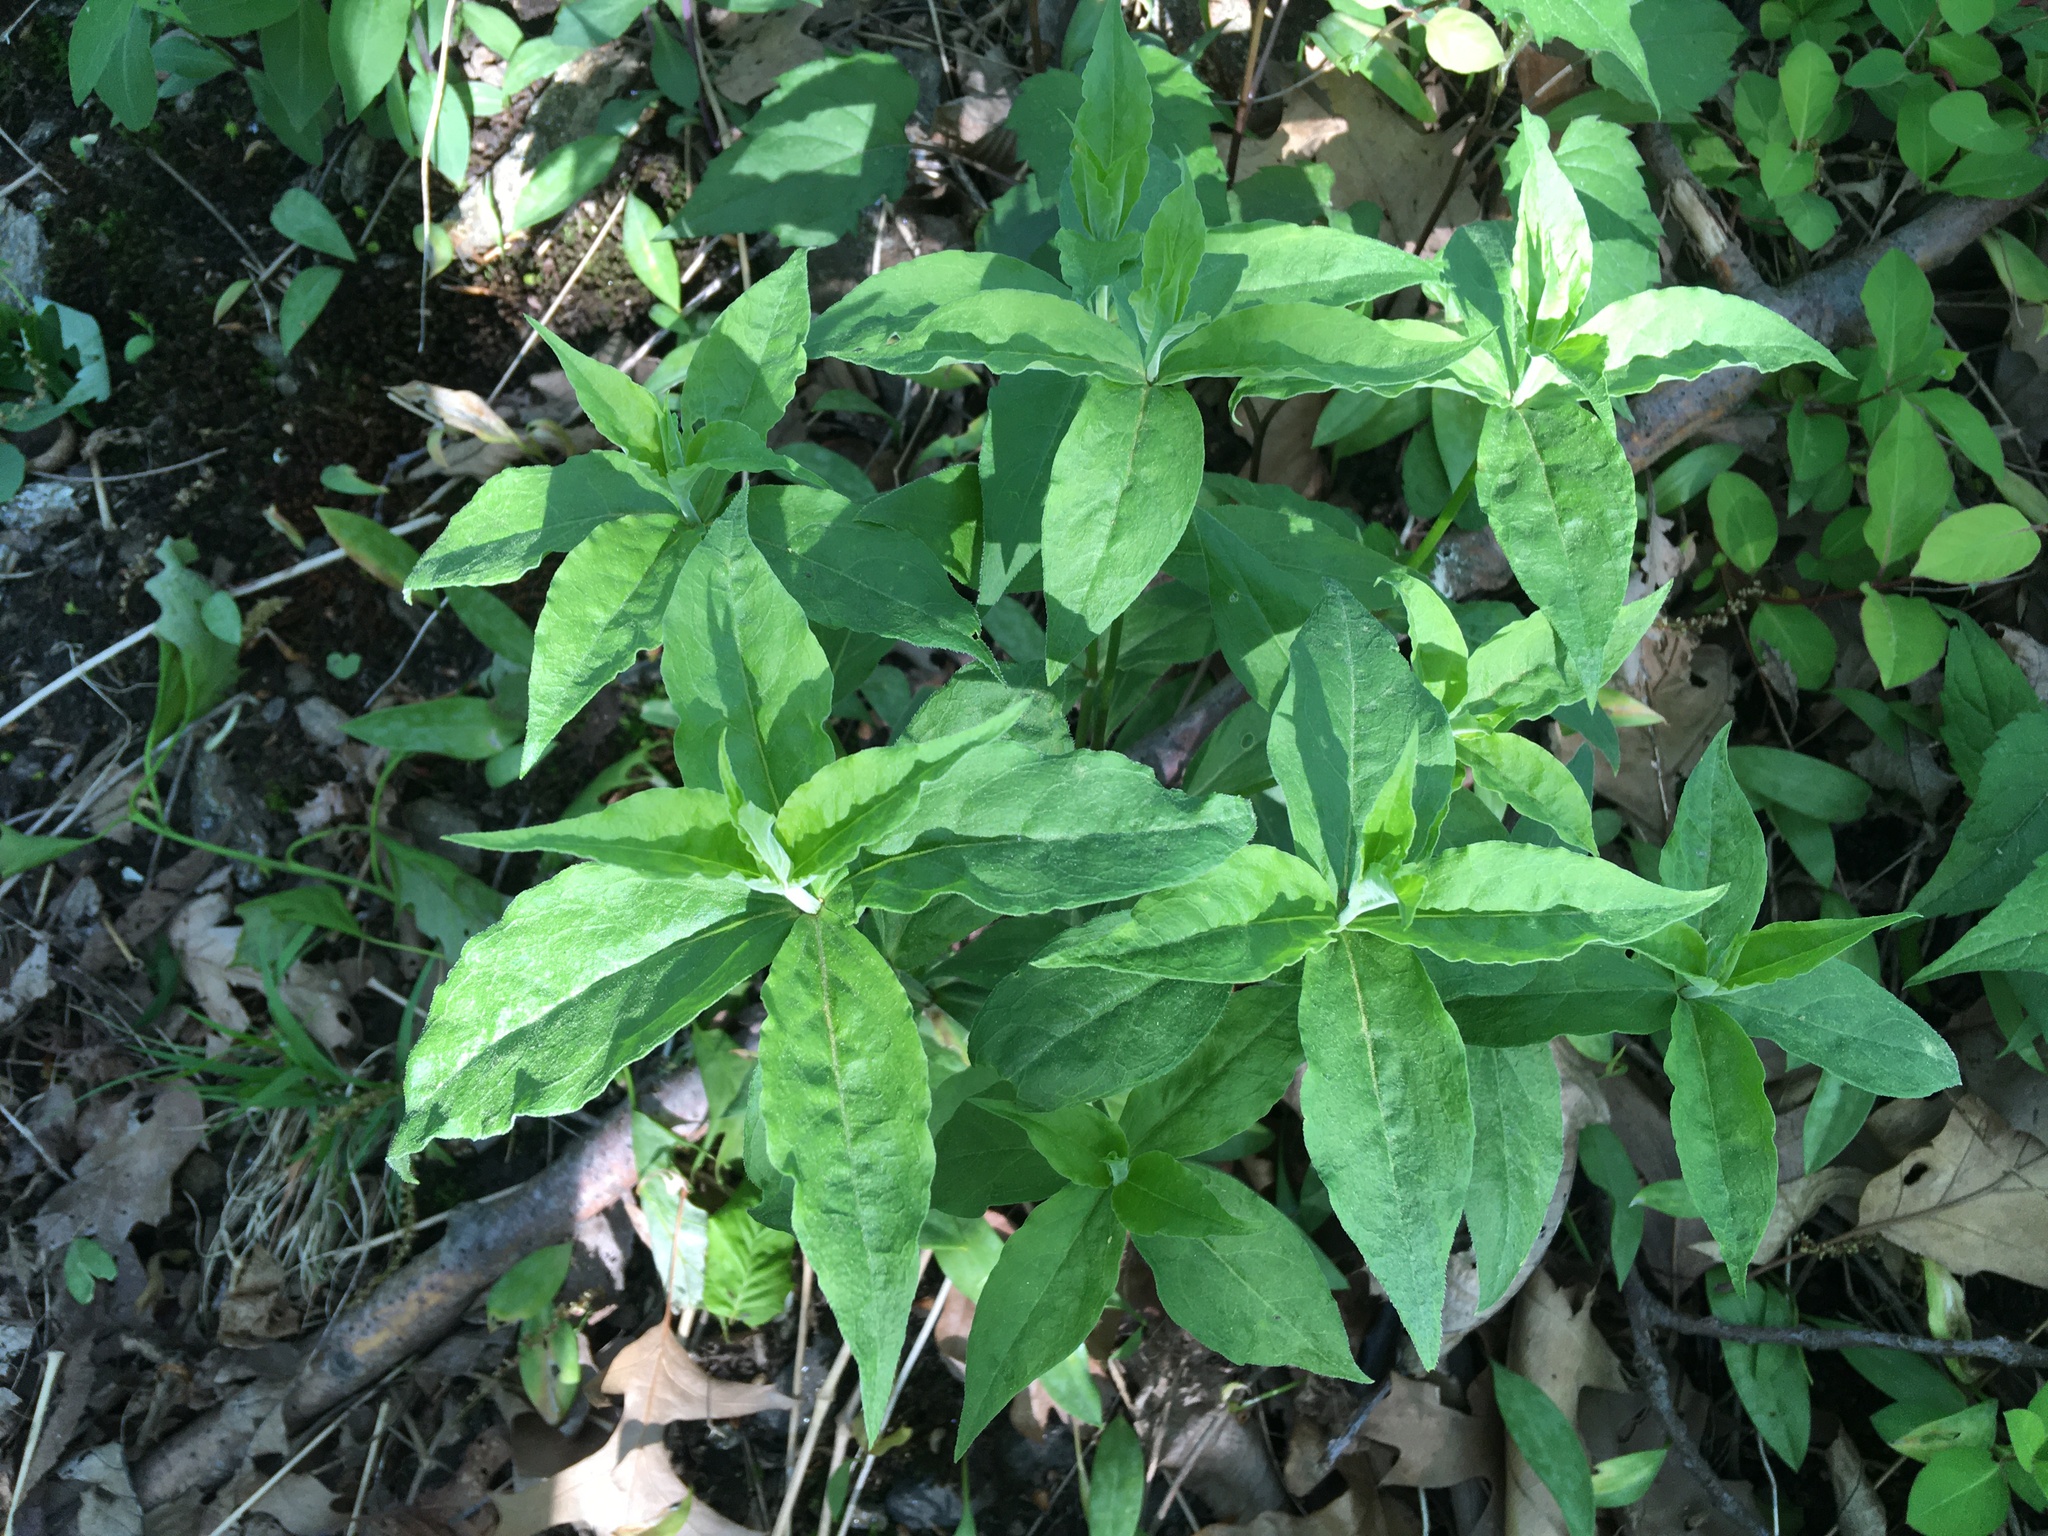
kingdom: Plantae
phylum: Tracheophyta
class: Magnoliopsida
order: Caryophyllales
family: Caryophyllaceae
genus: Silene
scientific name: Silene stellata
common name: Starry campion
